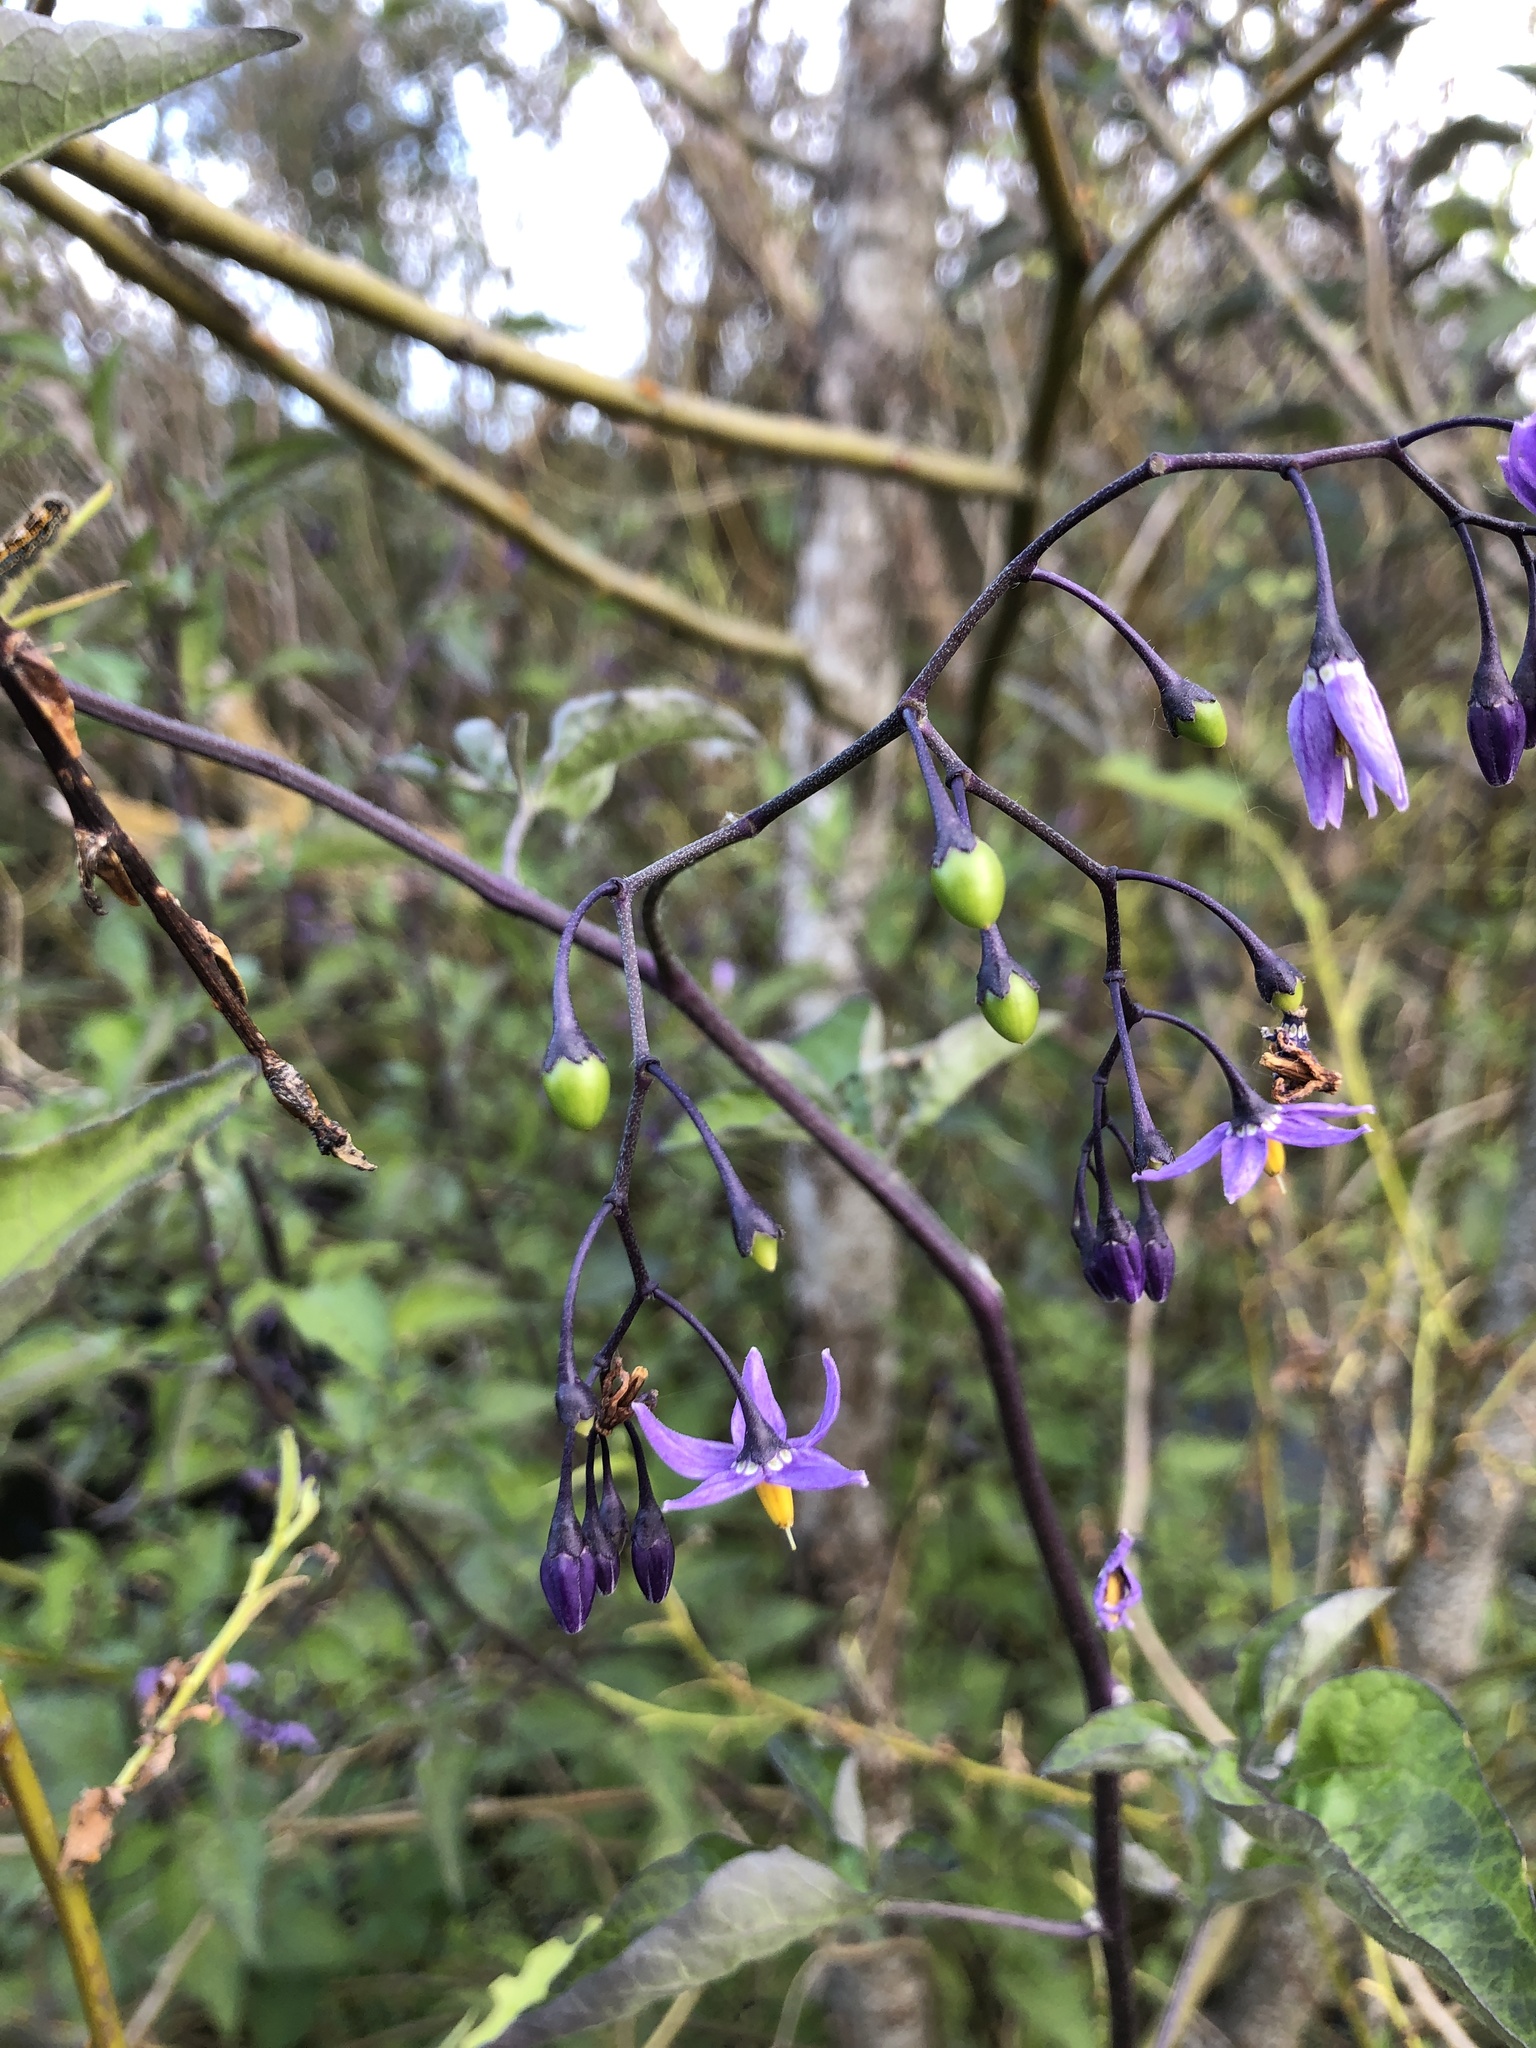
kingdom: Plantae
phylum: Tracheophyta
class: Magnoliopsida
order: Solanales
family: Solanaceae
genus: Solanum
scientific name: Solanum dulcamara
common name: Climbing nightshade
